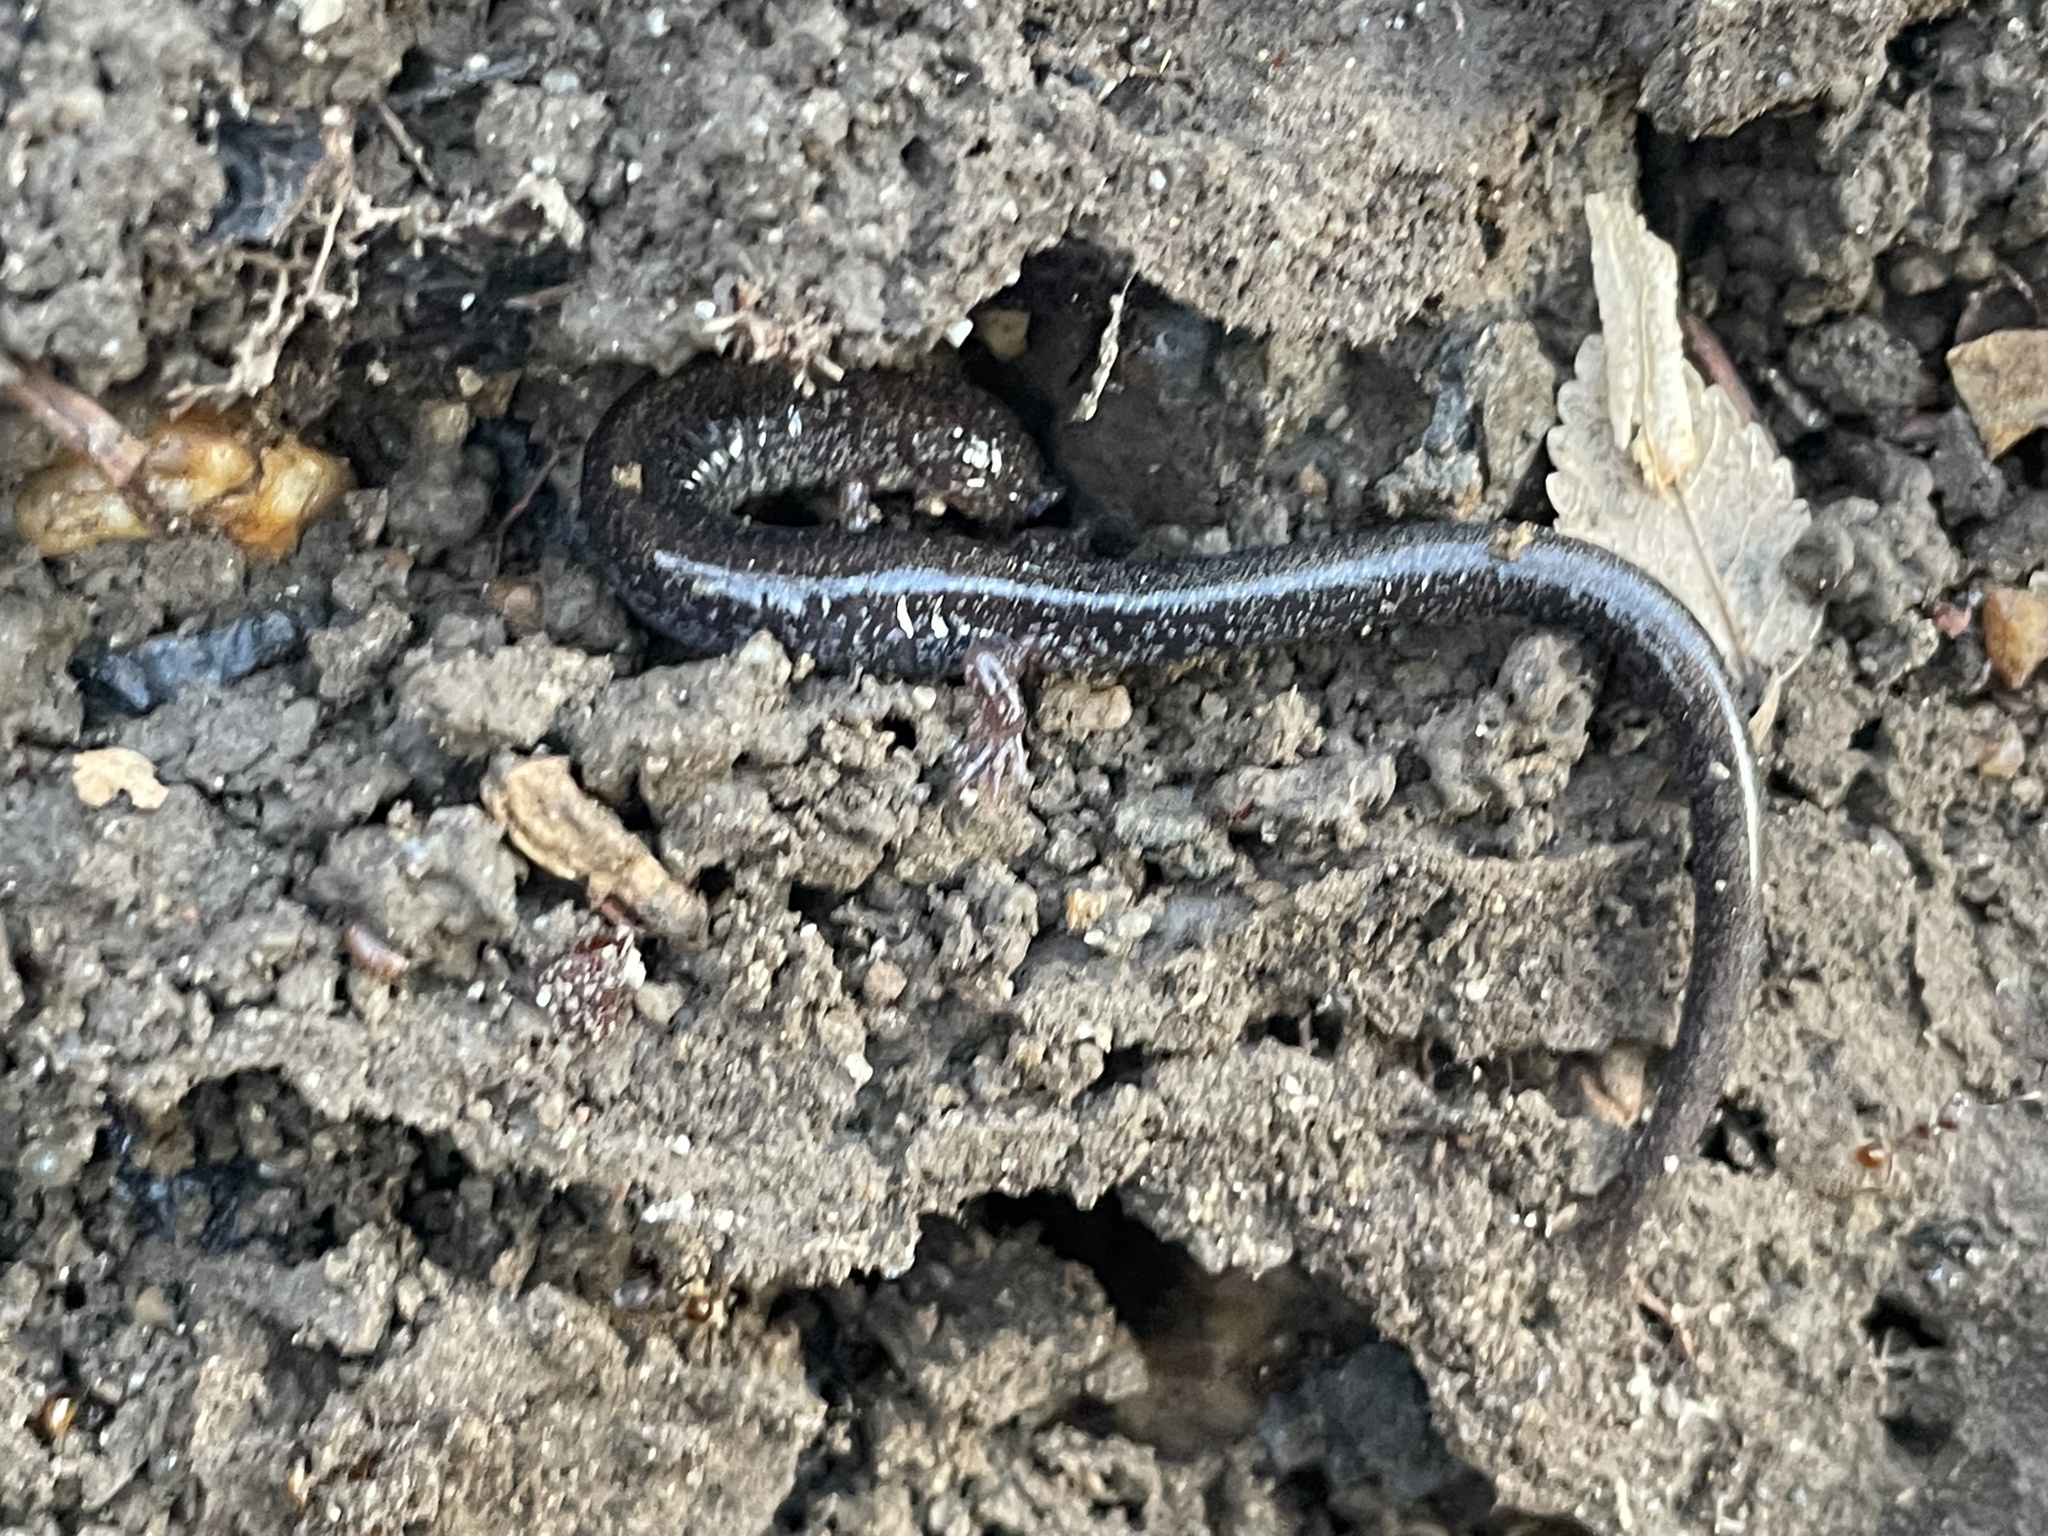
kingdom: Animalia
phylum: Chordata
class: Amphibia
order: Caudata
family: Plethodontidae
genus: Plethodon
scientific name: Plethodon cinereus
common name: Redback salamander
